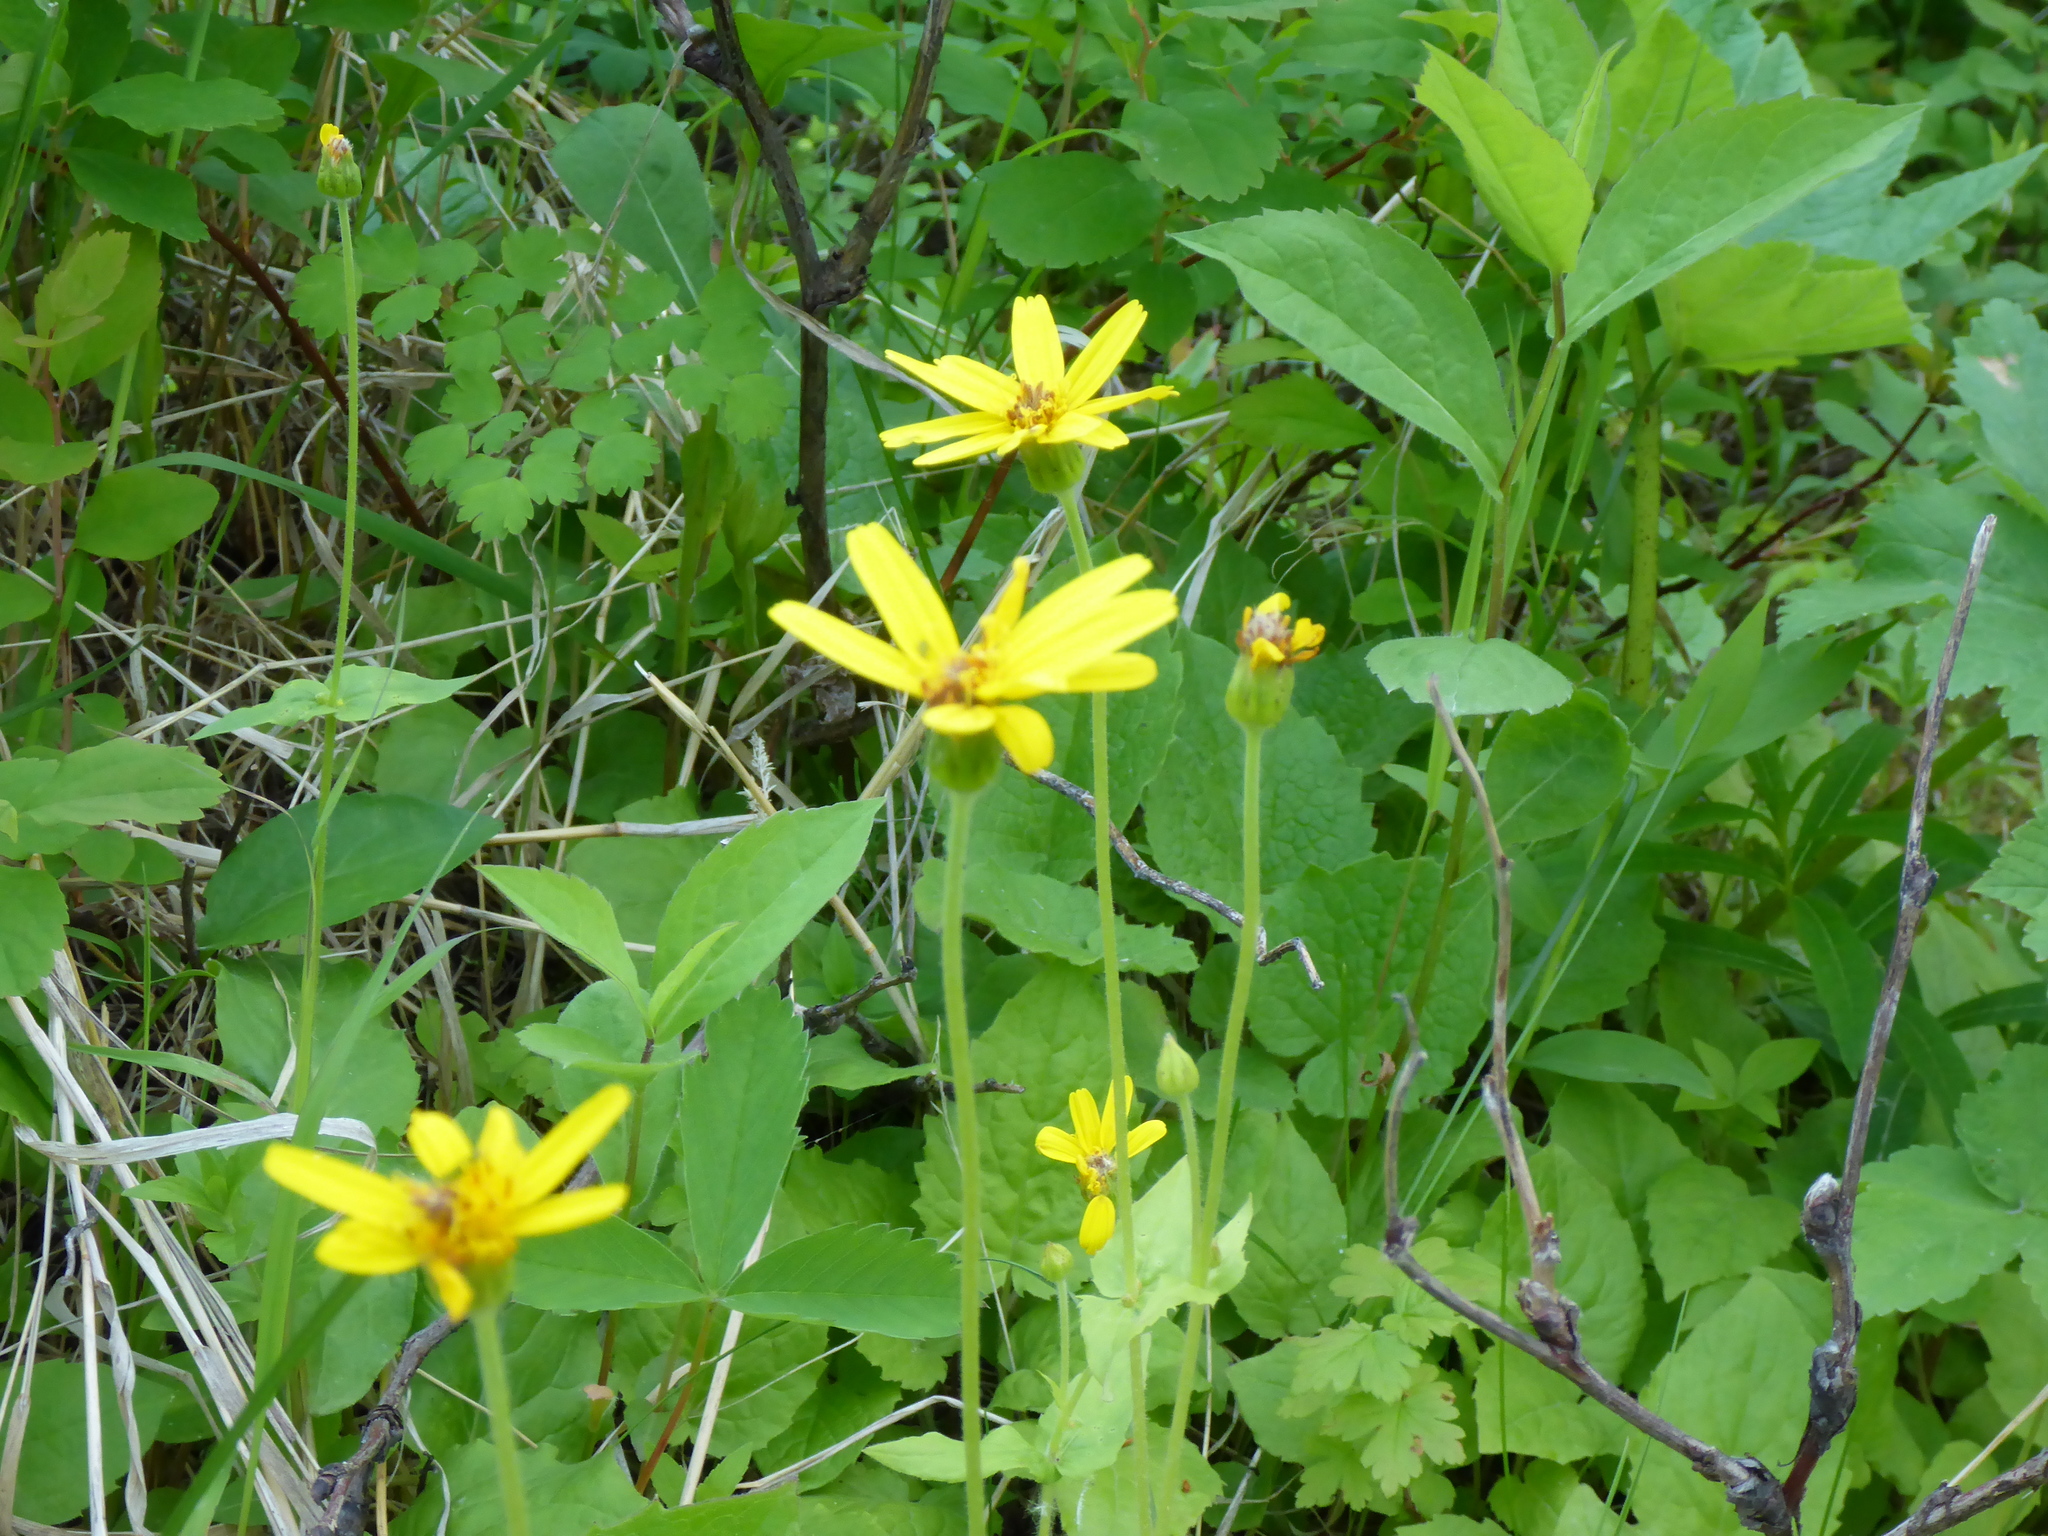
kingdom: Plantae
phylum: Tracheophyta
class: Magnoliopsida
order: Asterales
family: Asteraceae
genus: Arnica
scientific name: Arnica cordifolia
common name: Heart-leaf arnica
